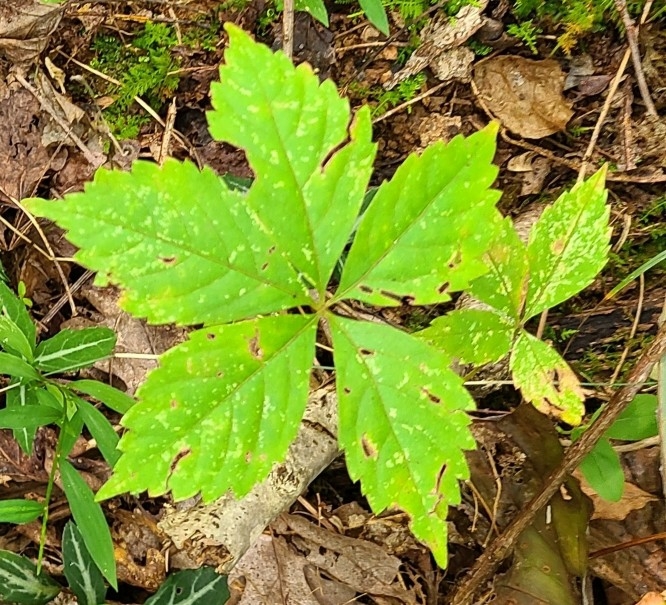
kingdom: Plantae
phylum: Tracheophyta
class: Magnoliopsida
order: Vitales
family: Vitaceae
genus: Parthenocissus
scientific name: Parthenocissus quinquefolia
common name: Virginia-creeper
